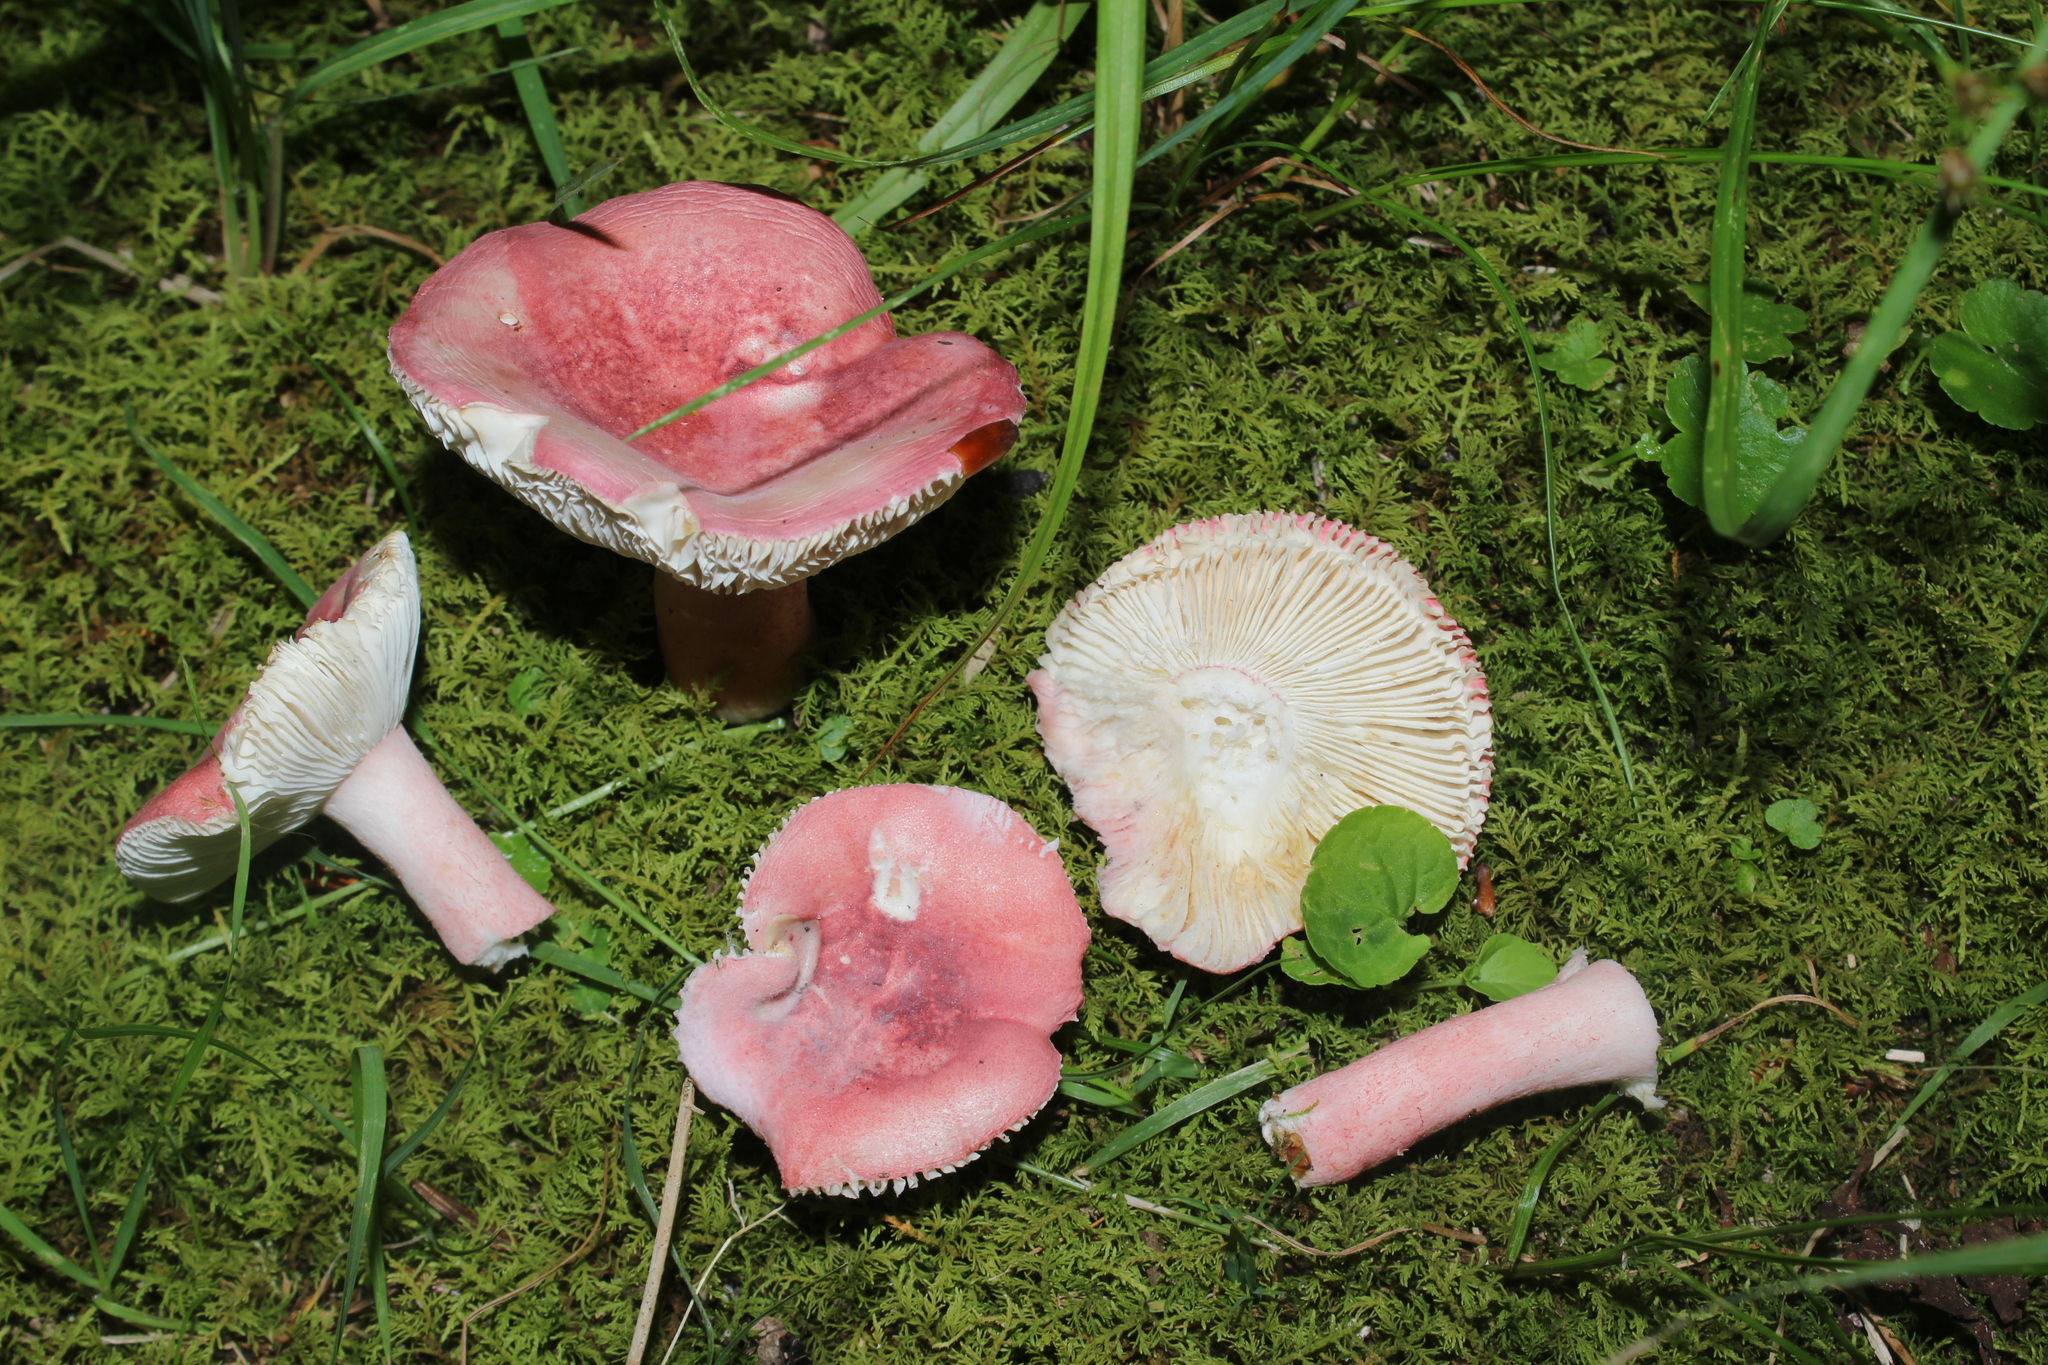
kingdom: Fungi
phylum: Basidiomycota
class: Agaricomycetes
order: Russulales
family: Russulaceae
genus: Russula
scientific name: Russula
